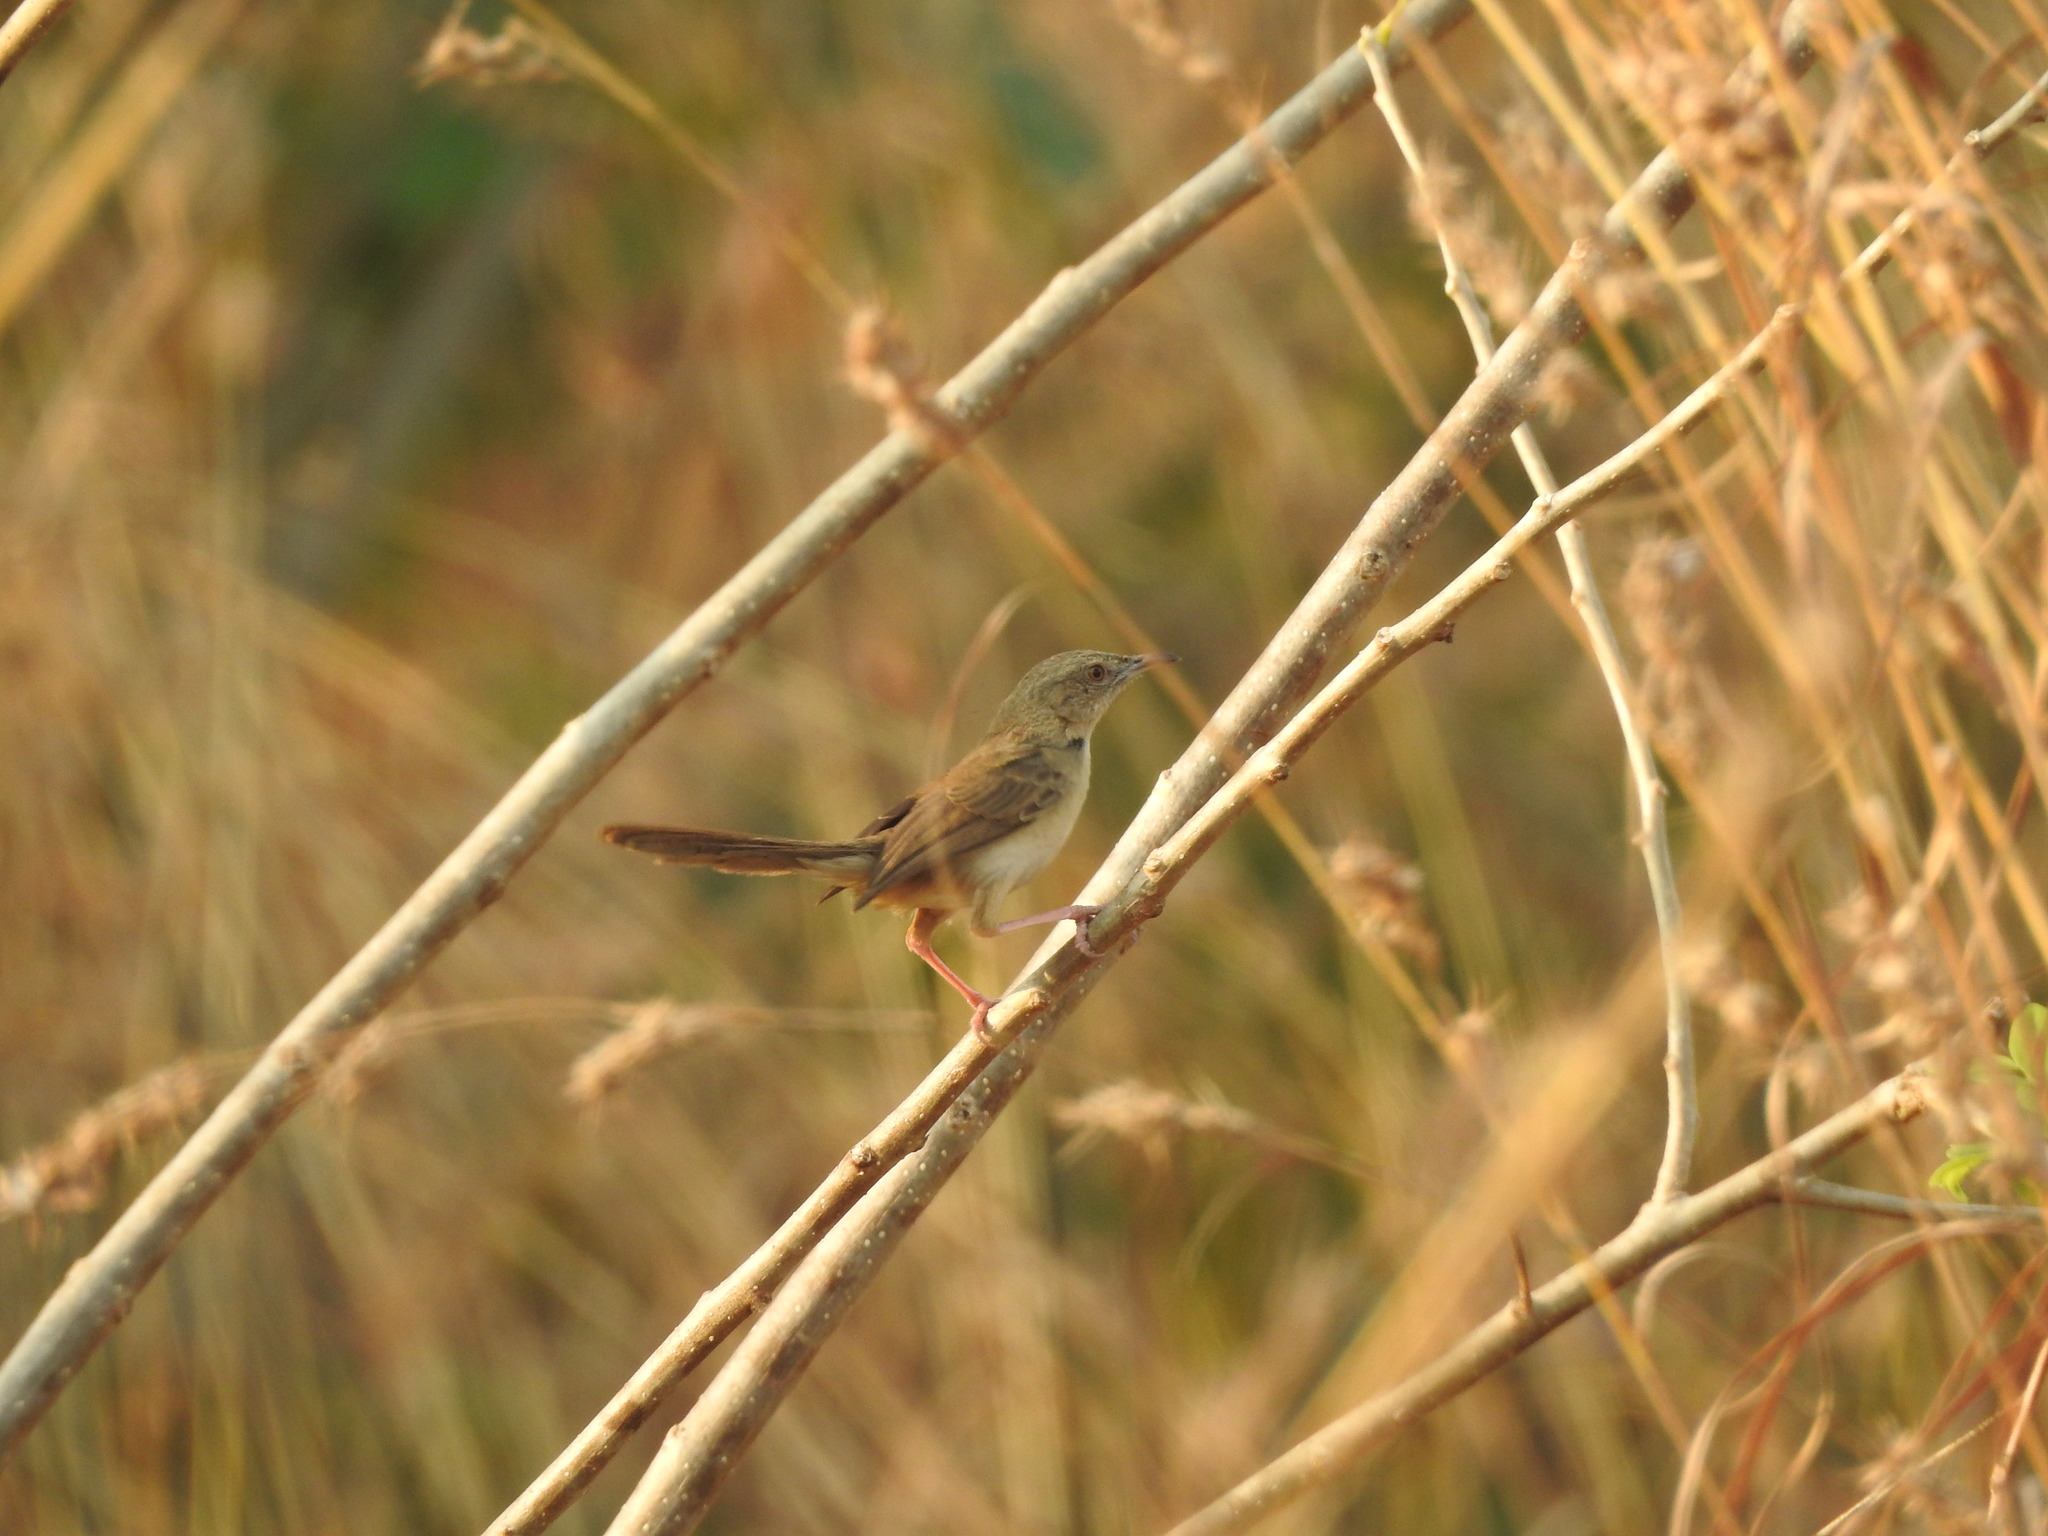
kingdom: Animalia
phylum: Chordata
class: Aves
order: Passeriformes
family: Cisticolidae
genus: Prinia
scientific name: Prinia sylvatica
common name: Jungle prinia
